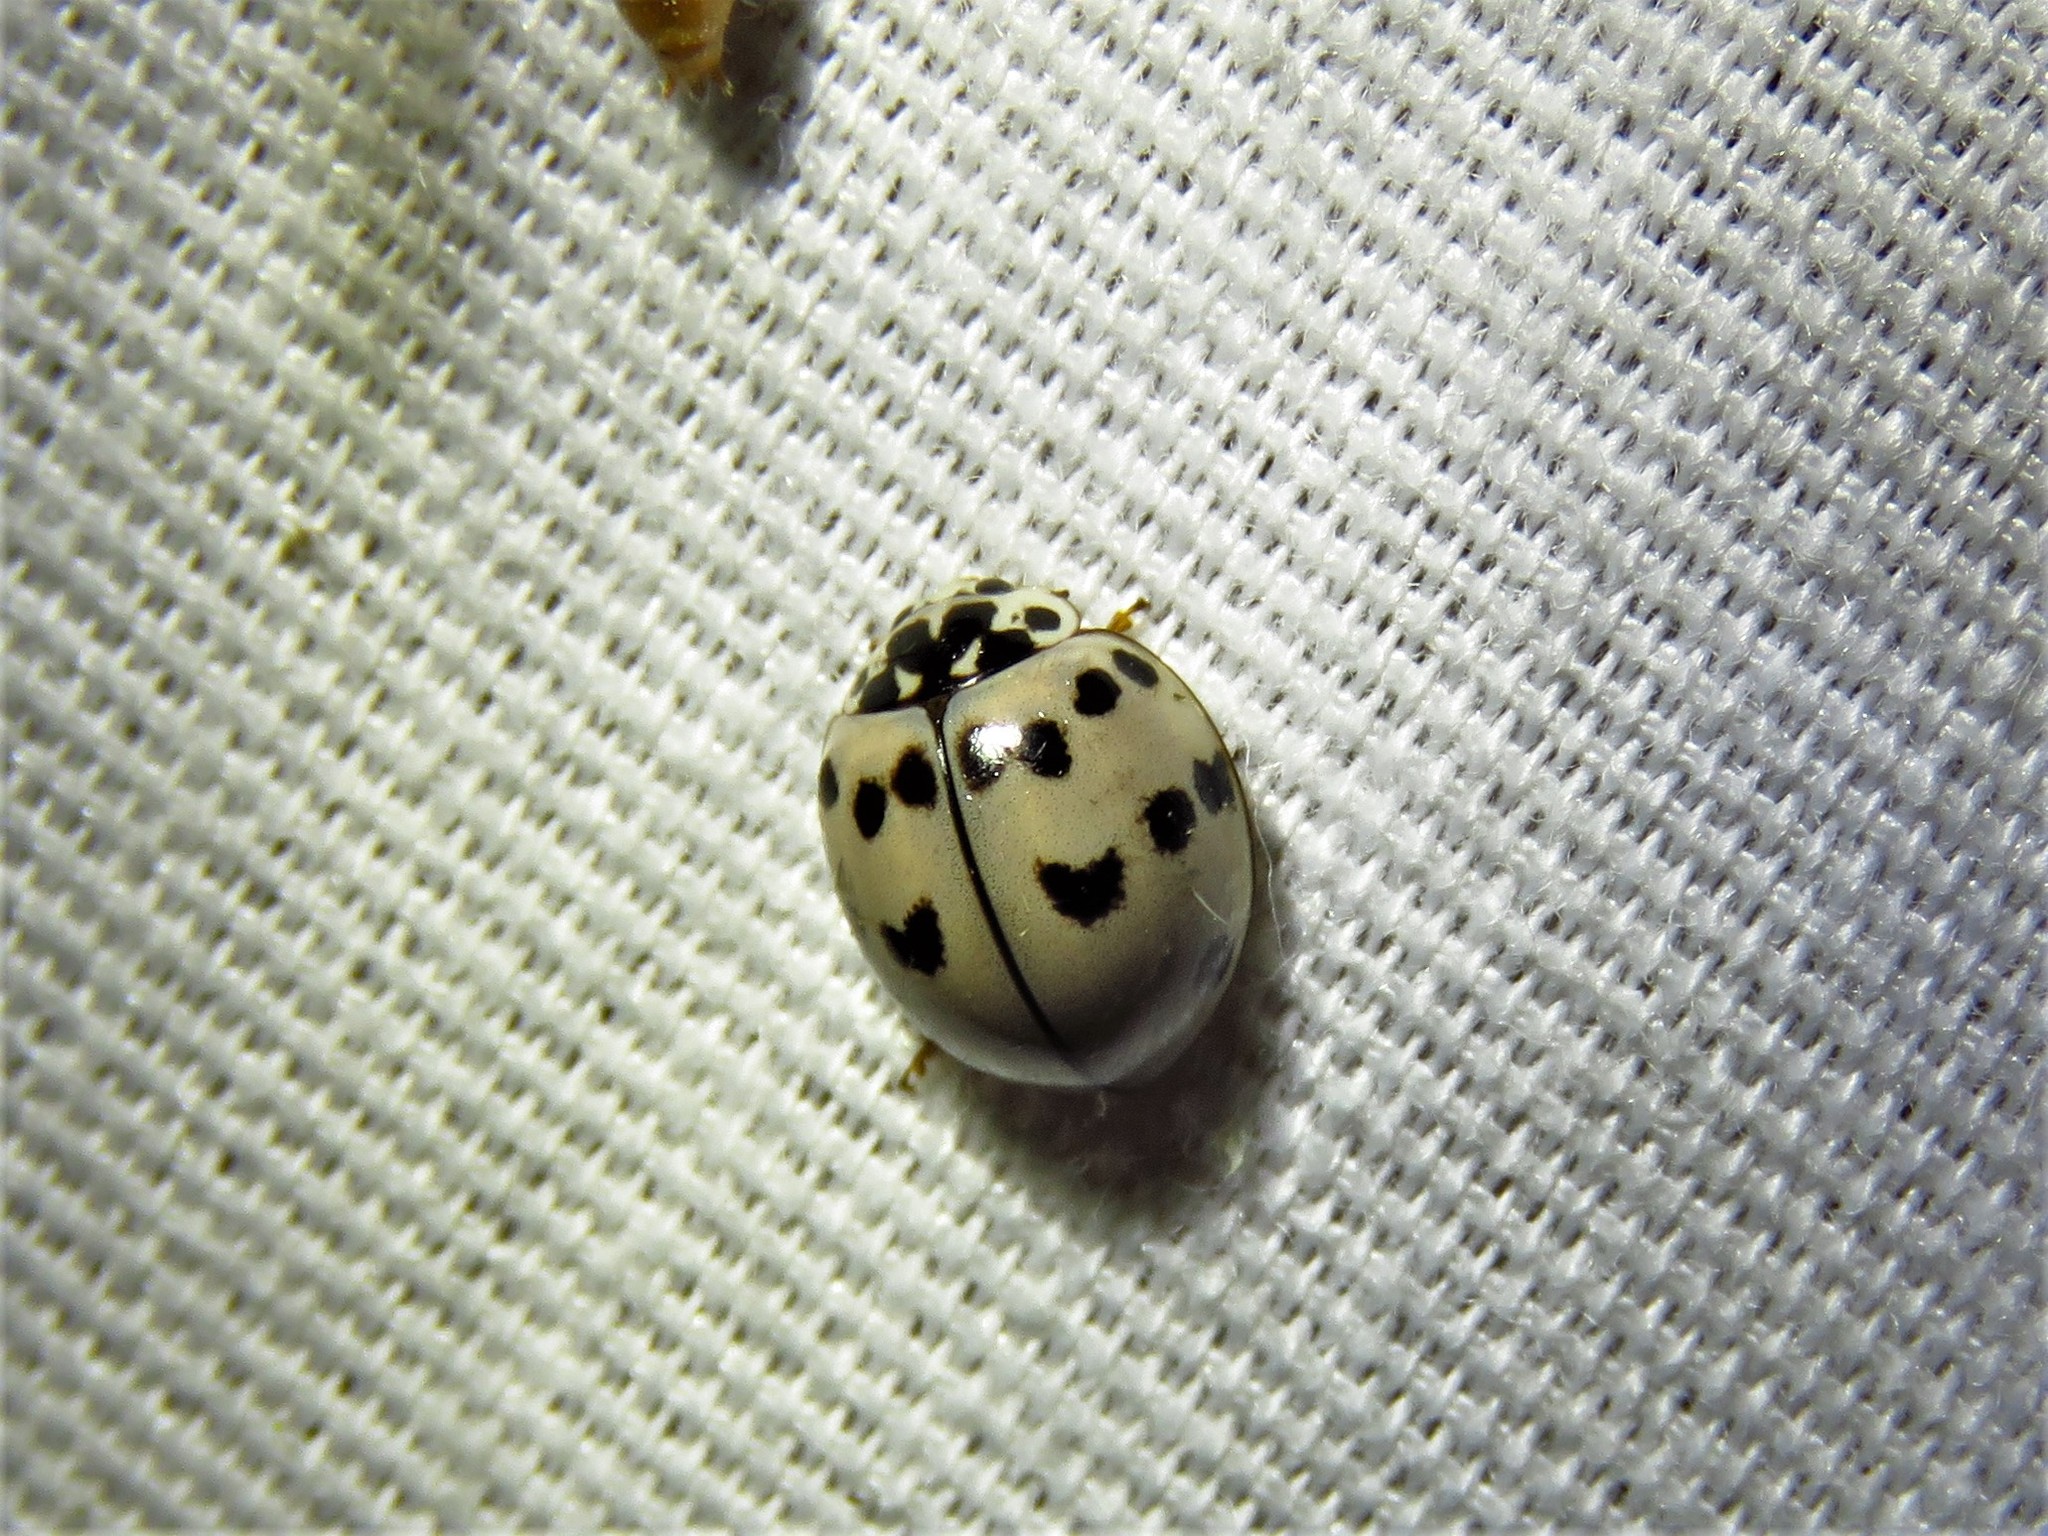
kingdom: Animalia
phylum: Arthropoda
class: Insecta
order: Coleoptera
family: Coccinellidae
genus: Olla
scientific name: Olla v-nigrum
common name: Ashy gray lady beetle
